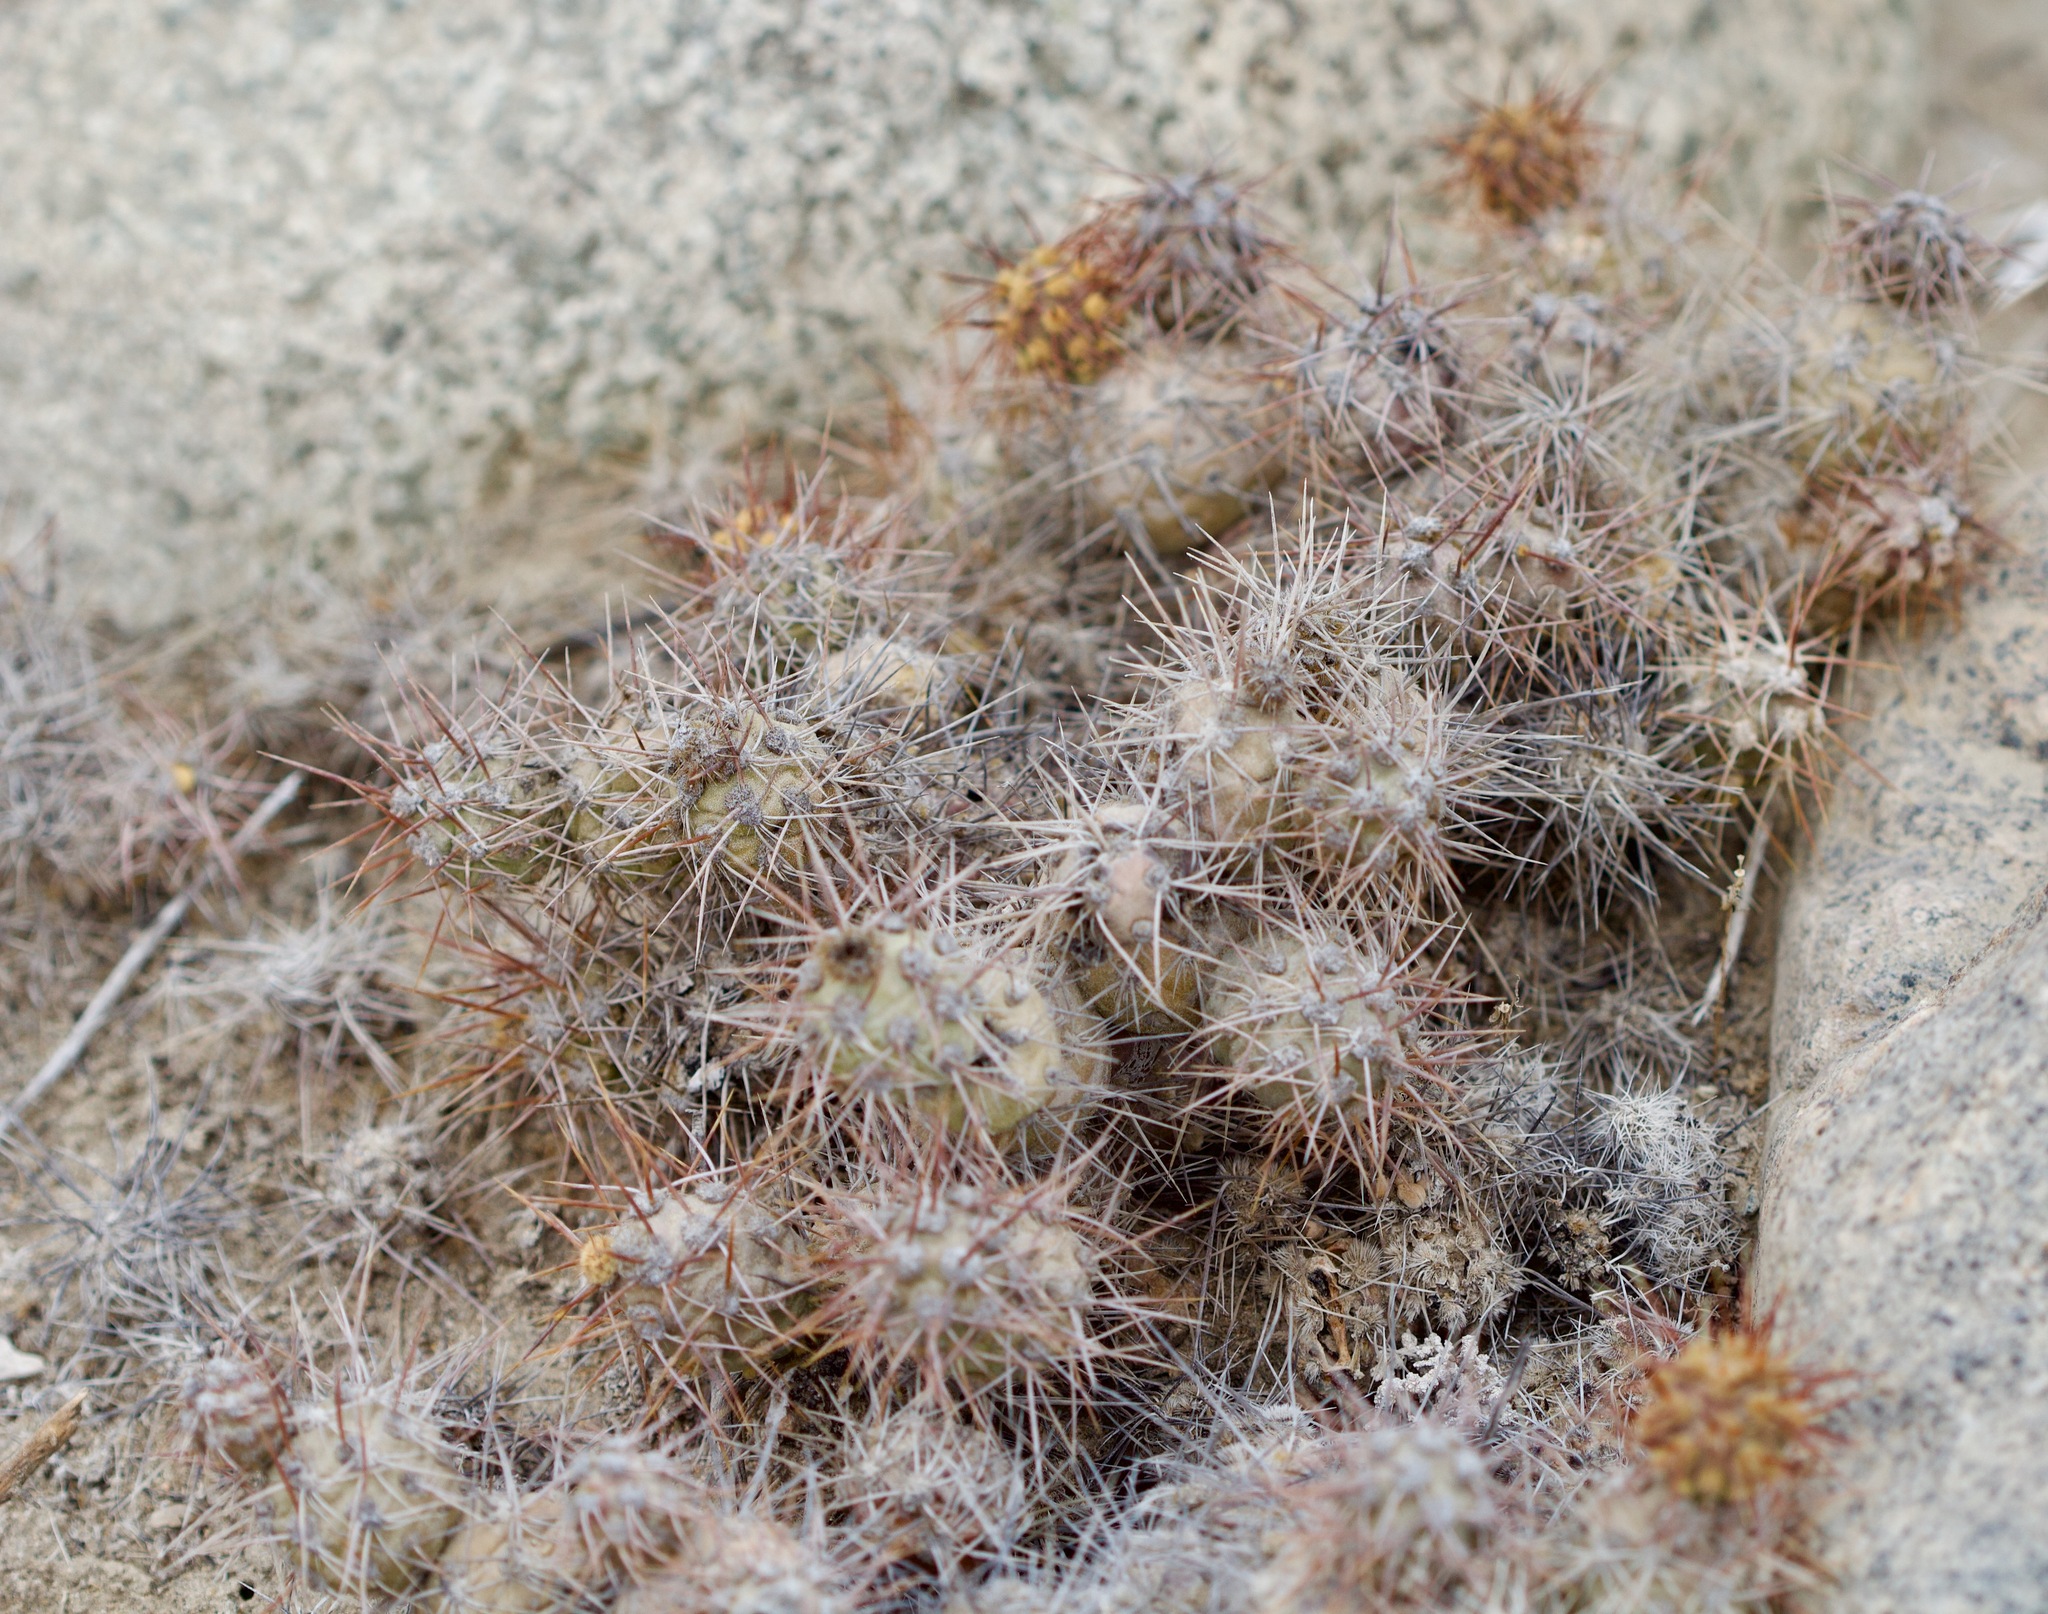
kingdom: Plantae
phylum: Tracheophyta
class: Magnoliopsida
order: Caryophyllales
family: Cactaceae
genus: Cumulopuntia
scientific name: Cumulopuntia leucophaea
